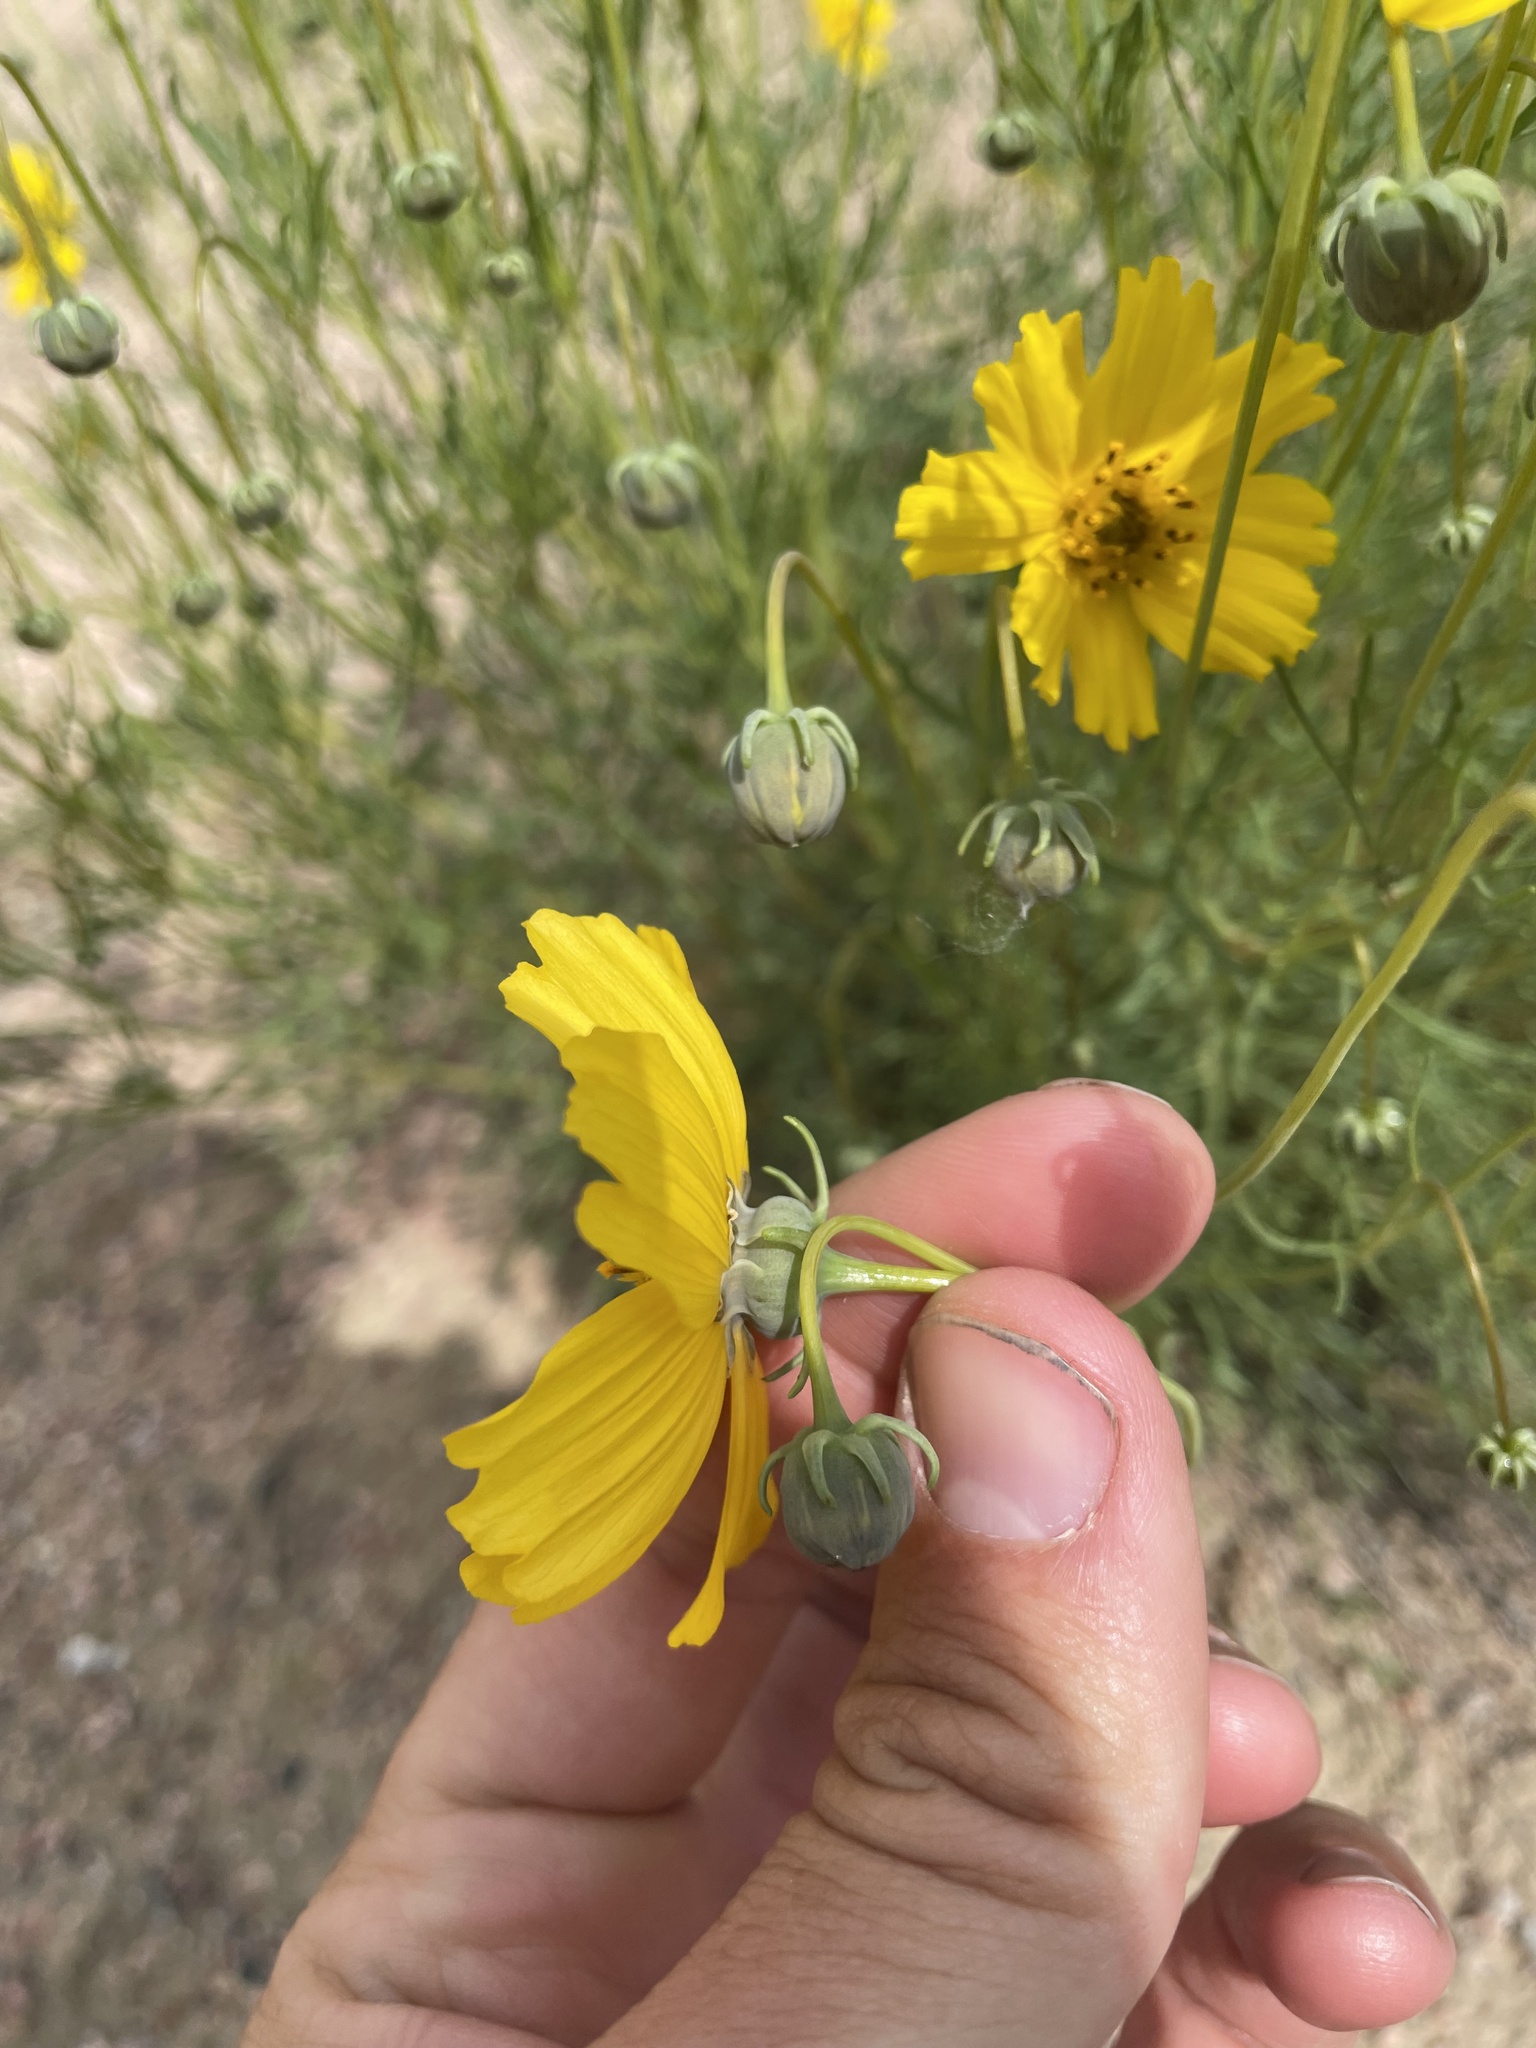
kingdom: Plantae
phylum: Tracheophyta
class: Magnoliopsida
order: Asterales
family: Asteraceae
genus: Thelesperma
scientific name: Thelesperma filifolium
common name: Stiff greenthread
